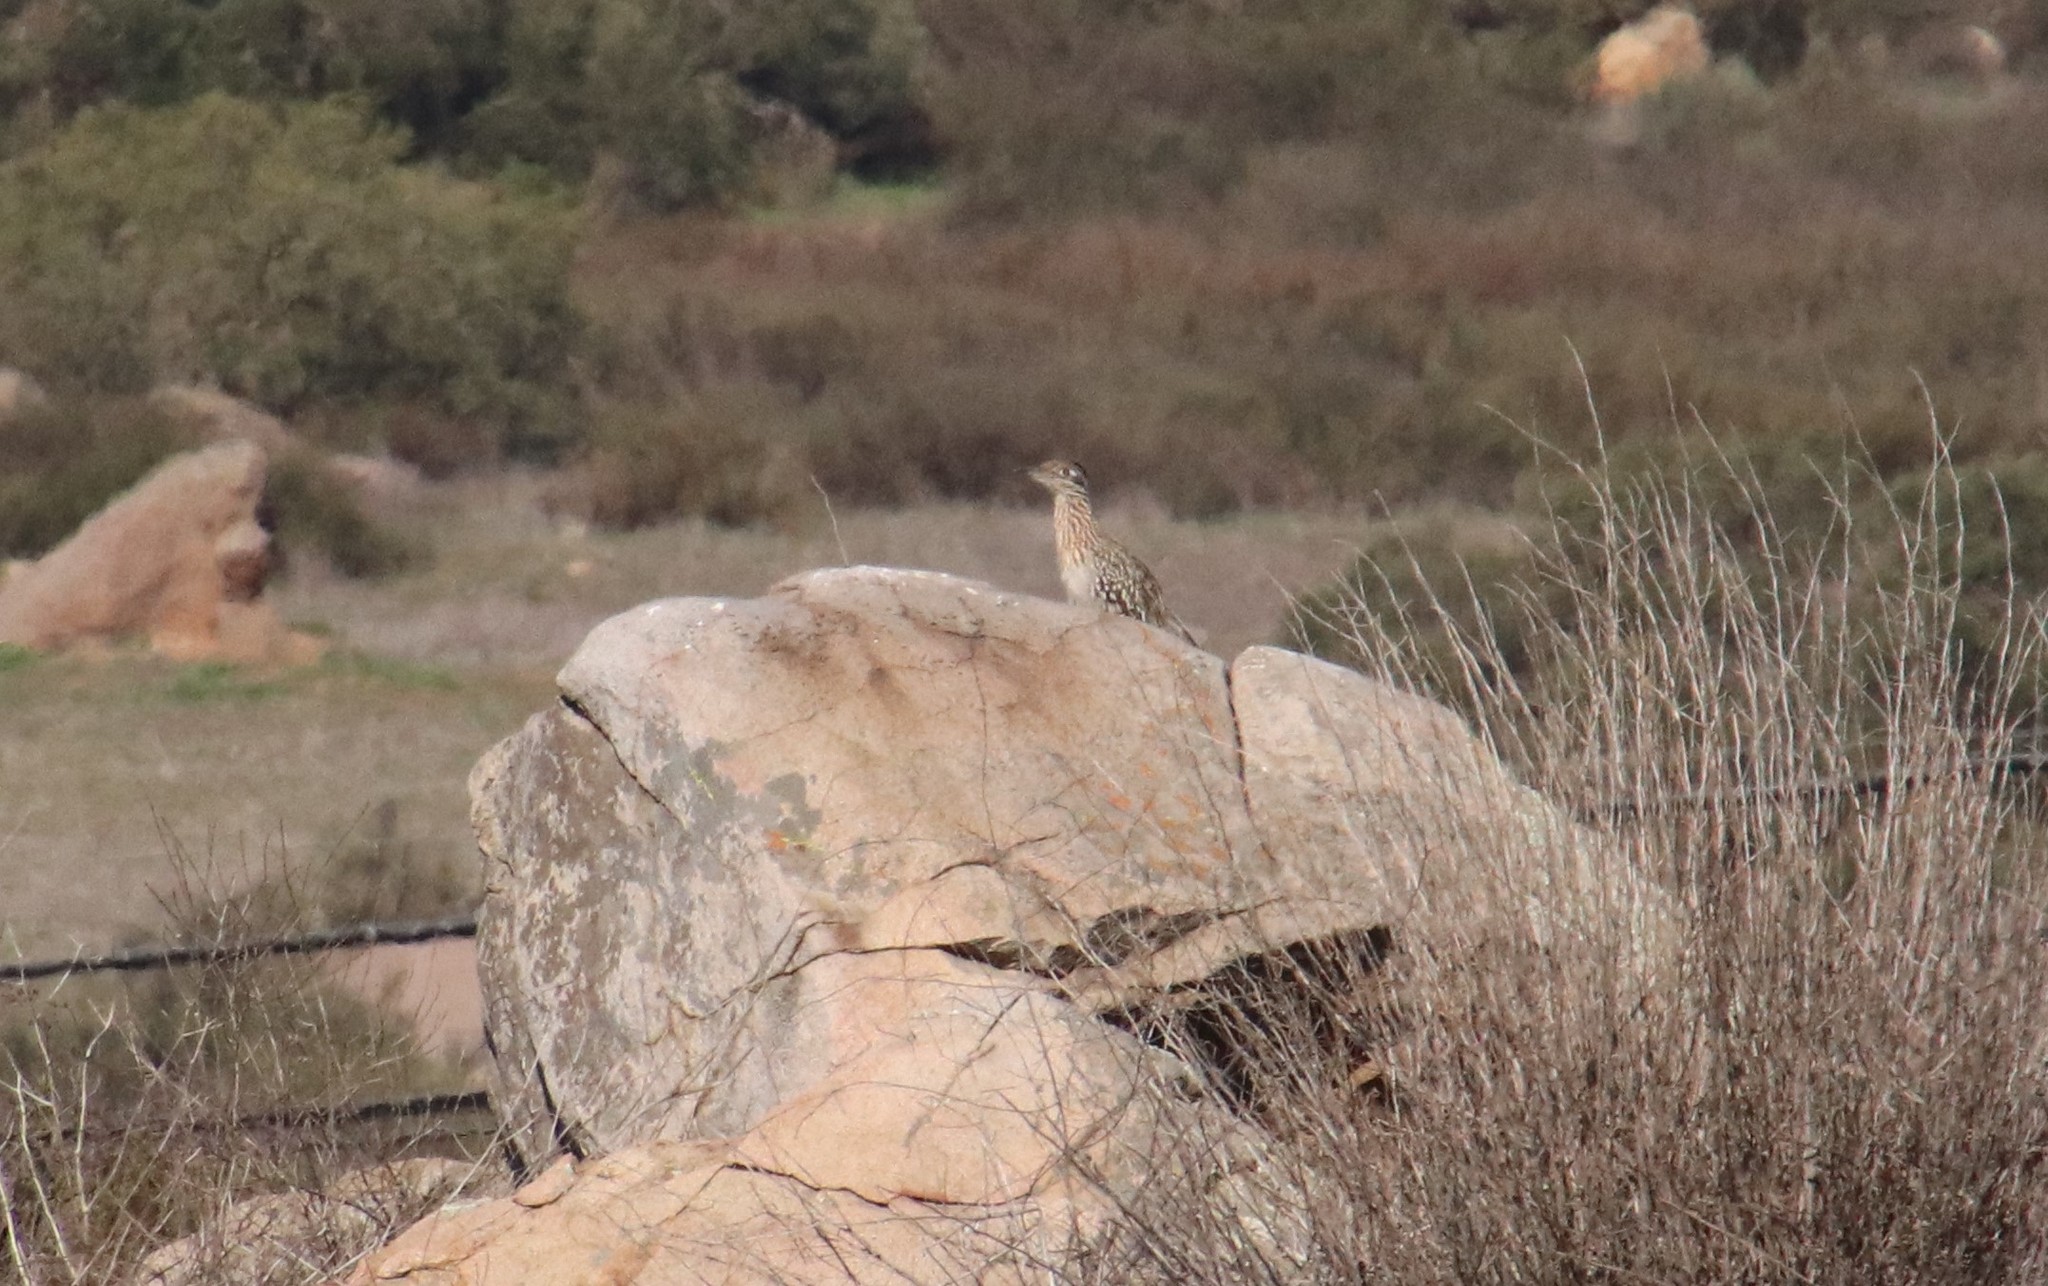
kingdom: Animalia
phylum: Chordata
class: Aves
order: Cuculiformes
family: Cuculidae
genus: Geococcyx
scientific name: Geococcyx californianus
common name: Greater roadrunner
